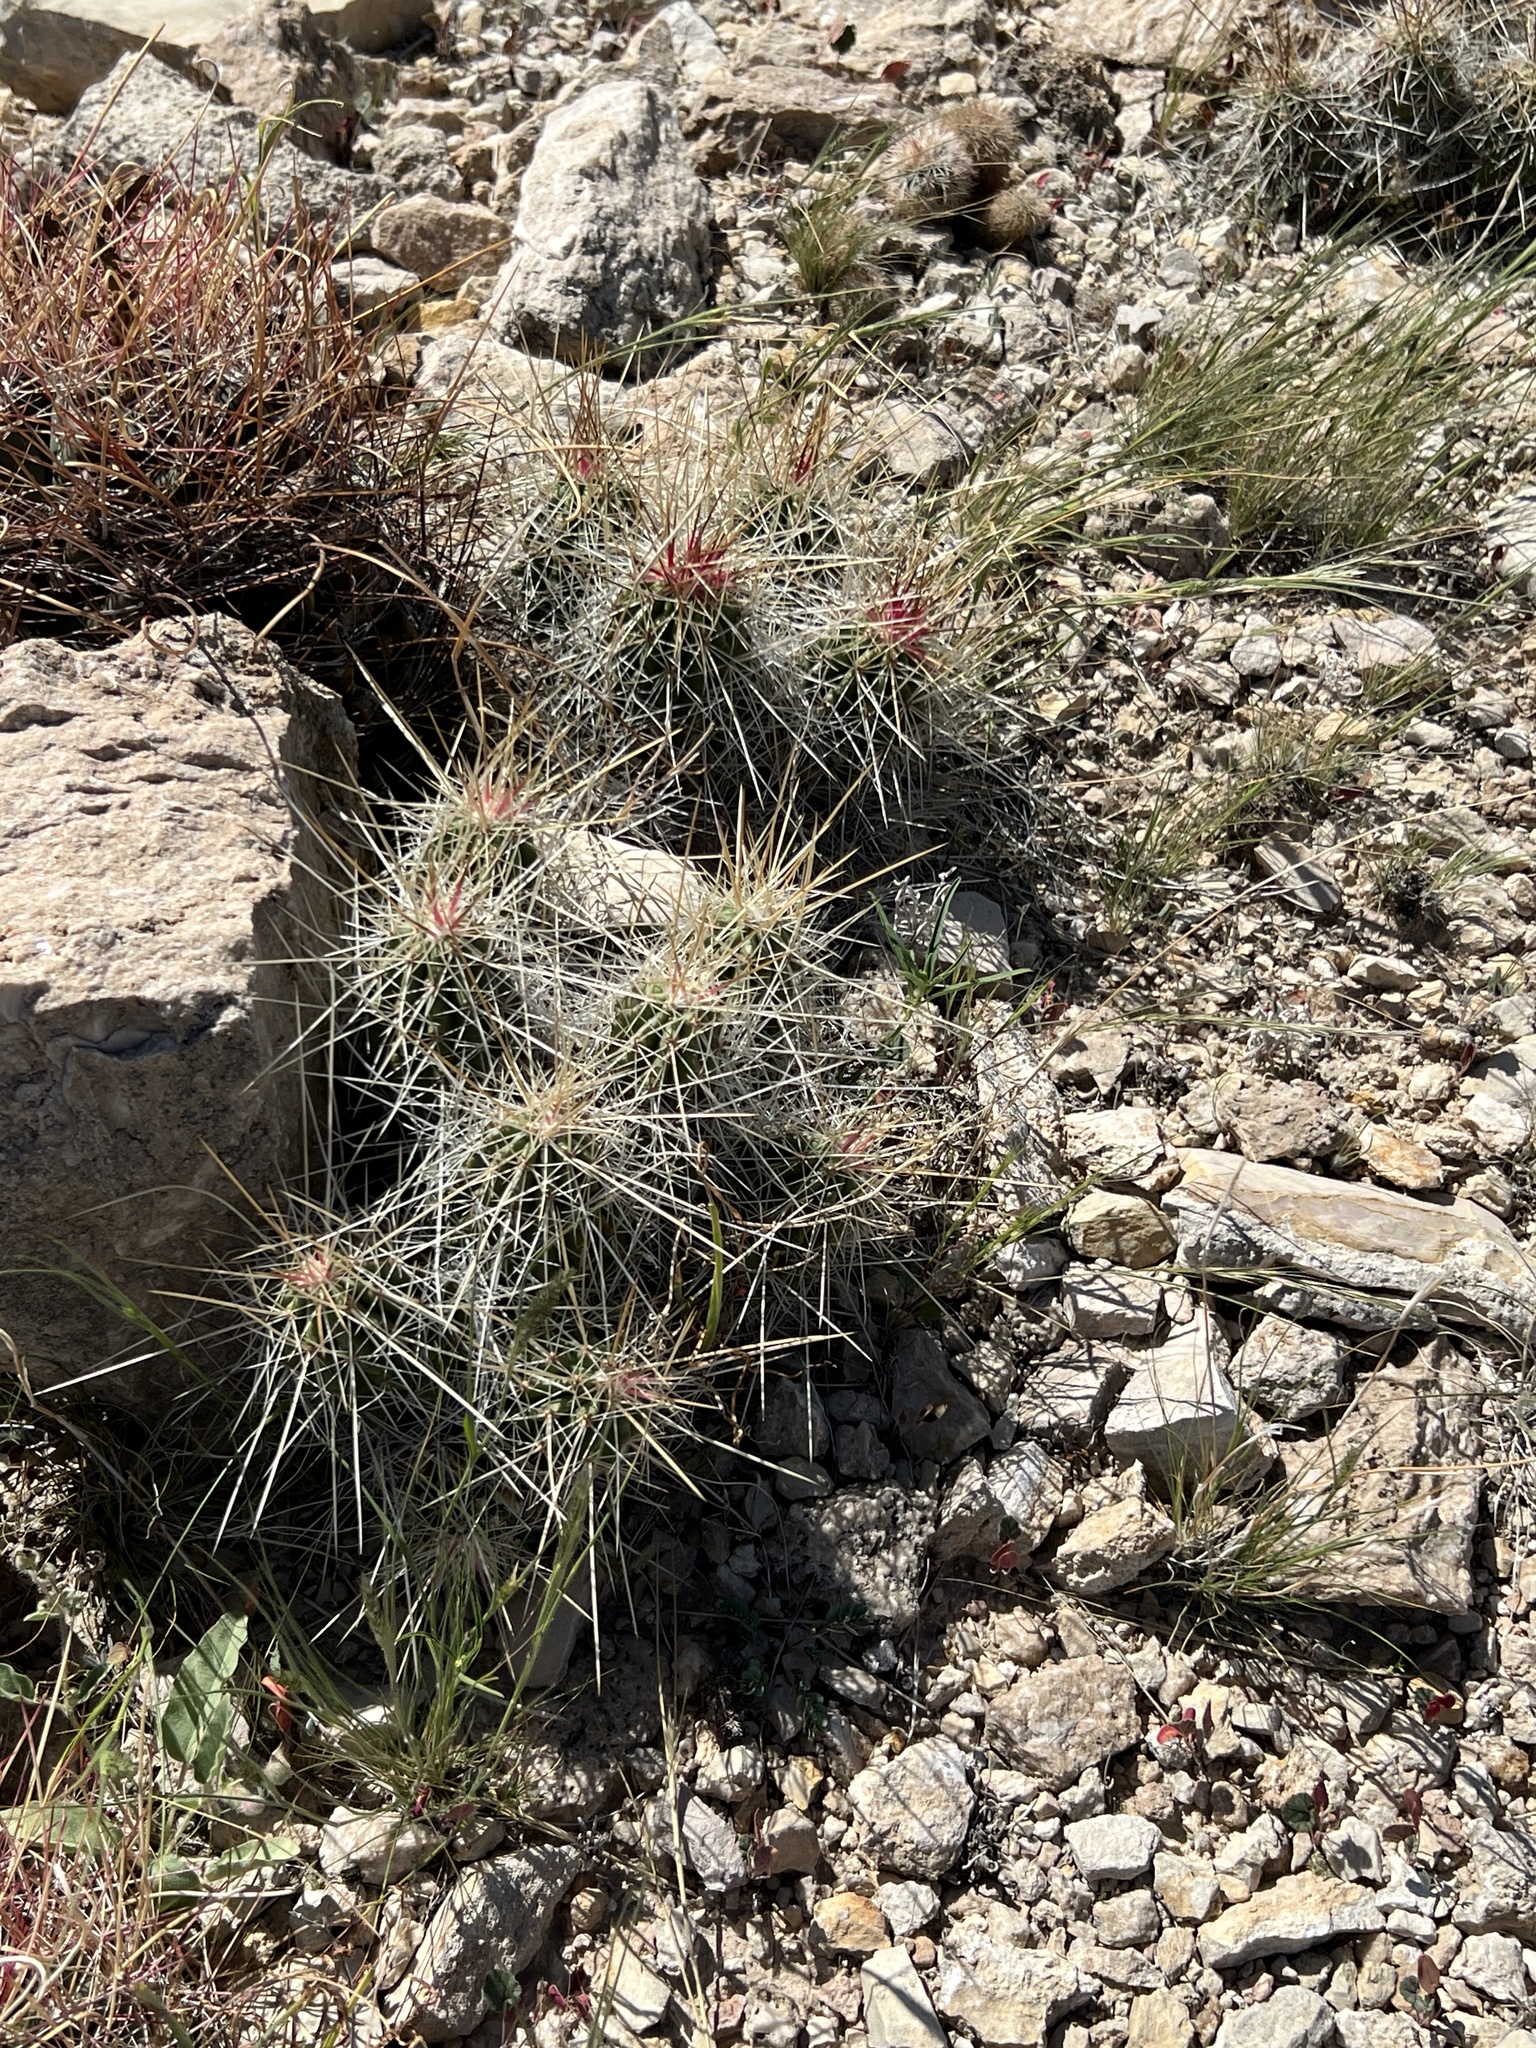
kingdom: Plantae
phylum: Tracheophyta
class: Magnoliopsida
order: Caryophyllales
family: Cactaceae
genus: Echinocereus
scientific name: Echinocereus stramineus
